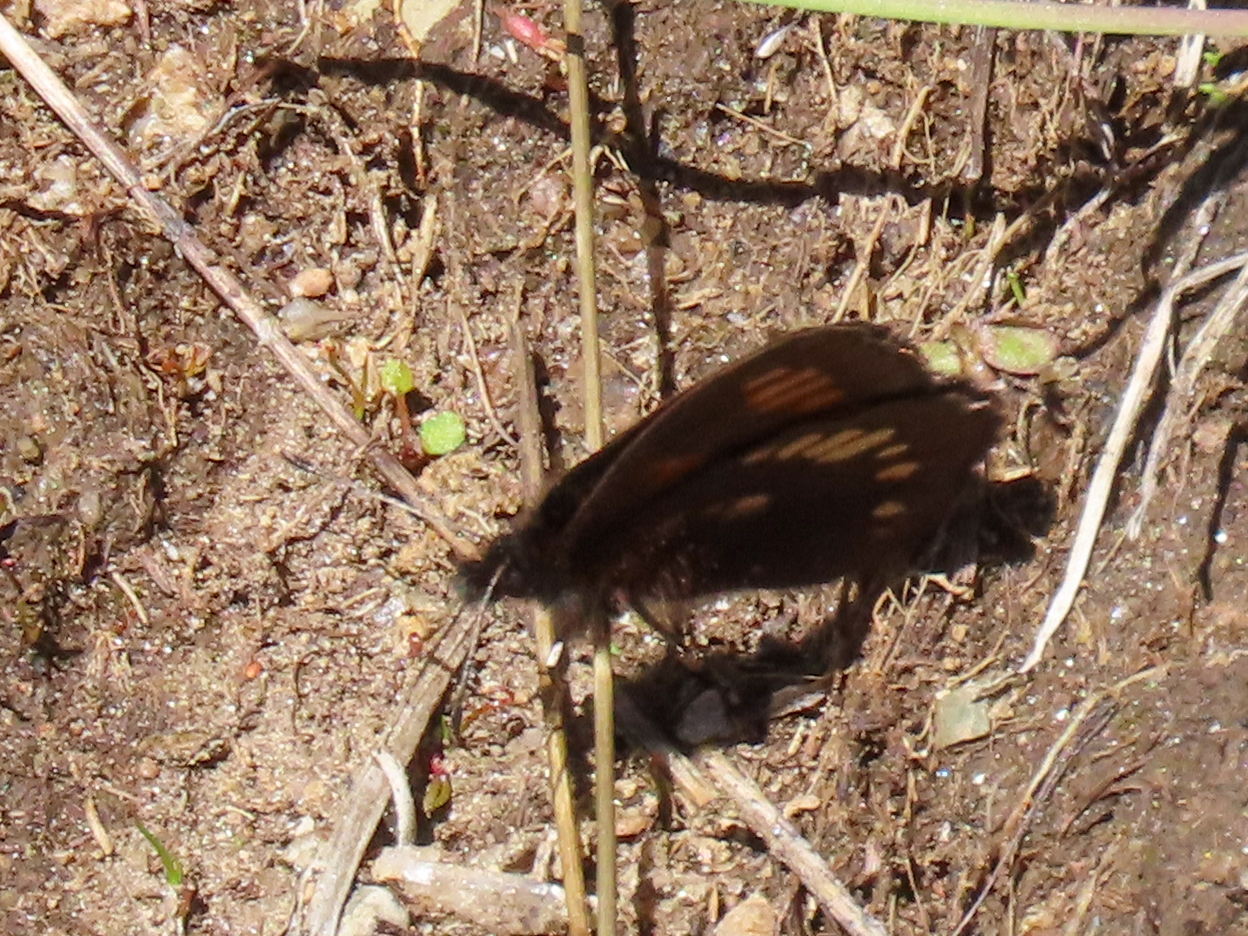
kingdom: Animalia
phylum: Arthropoda
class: Insecta
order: Lepidoptera
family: Nymphalidae
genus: Erebia
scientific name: Erebia pawloskii
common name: Theano alpine
